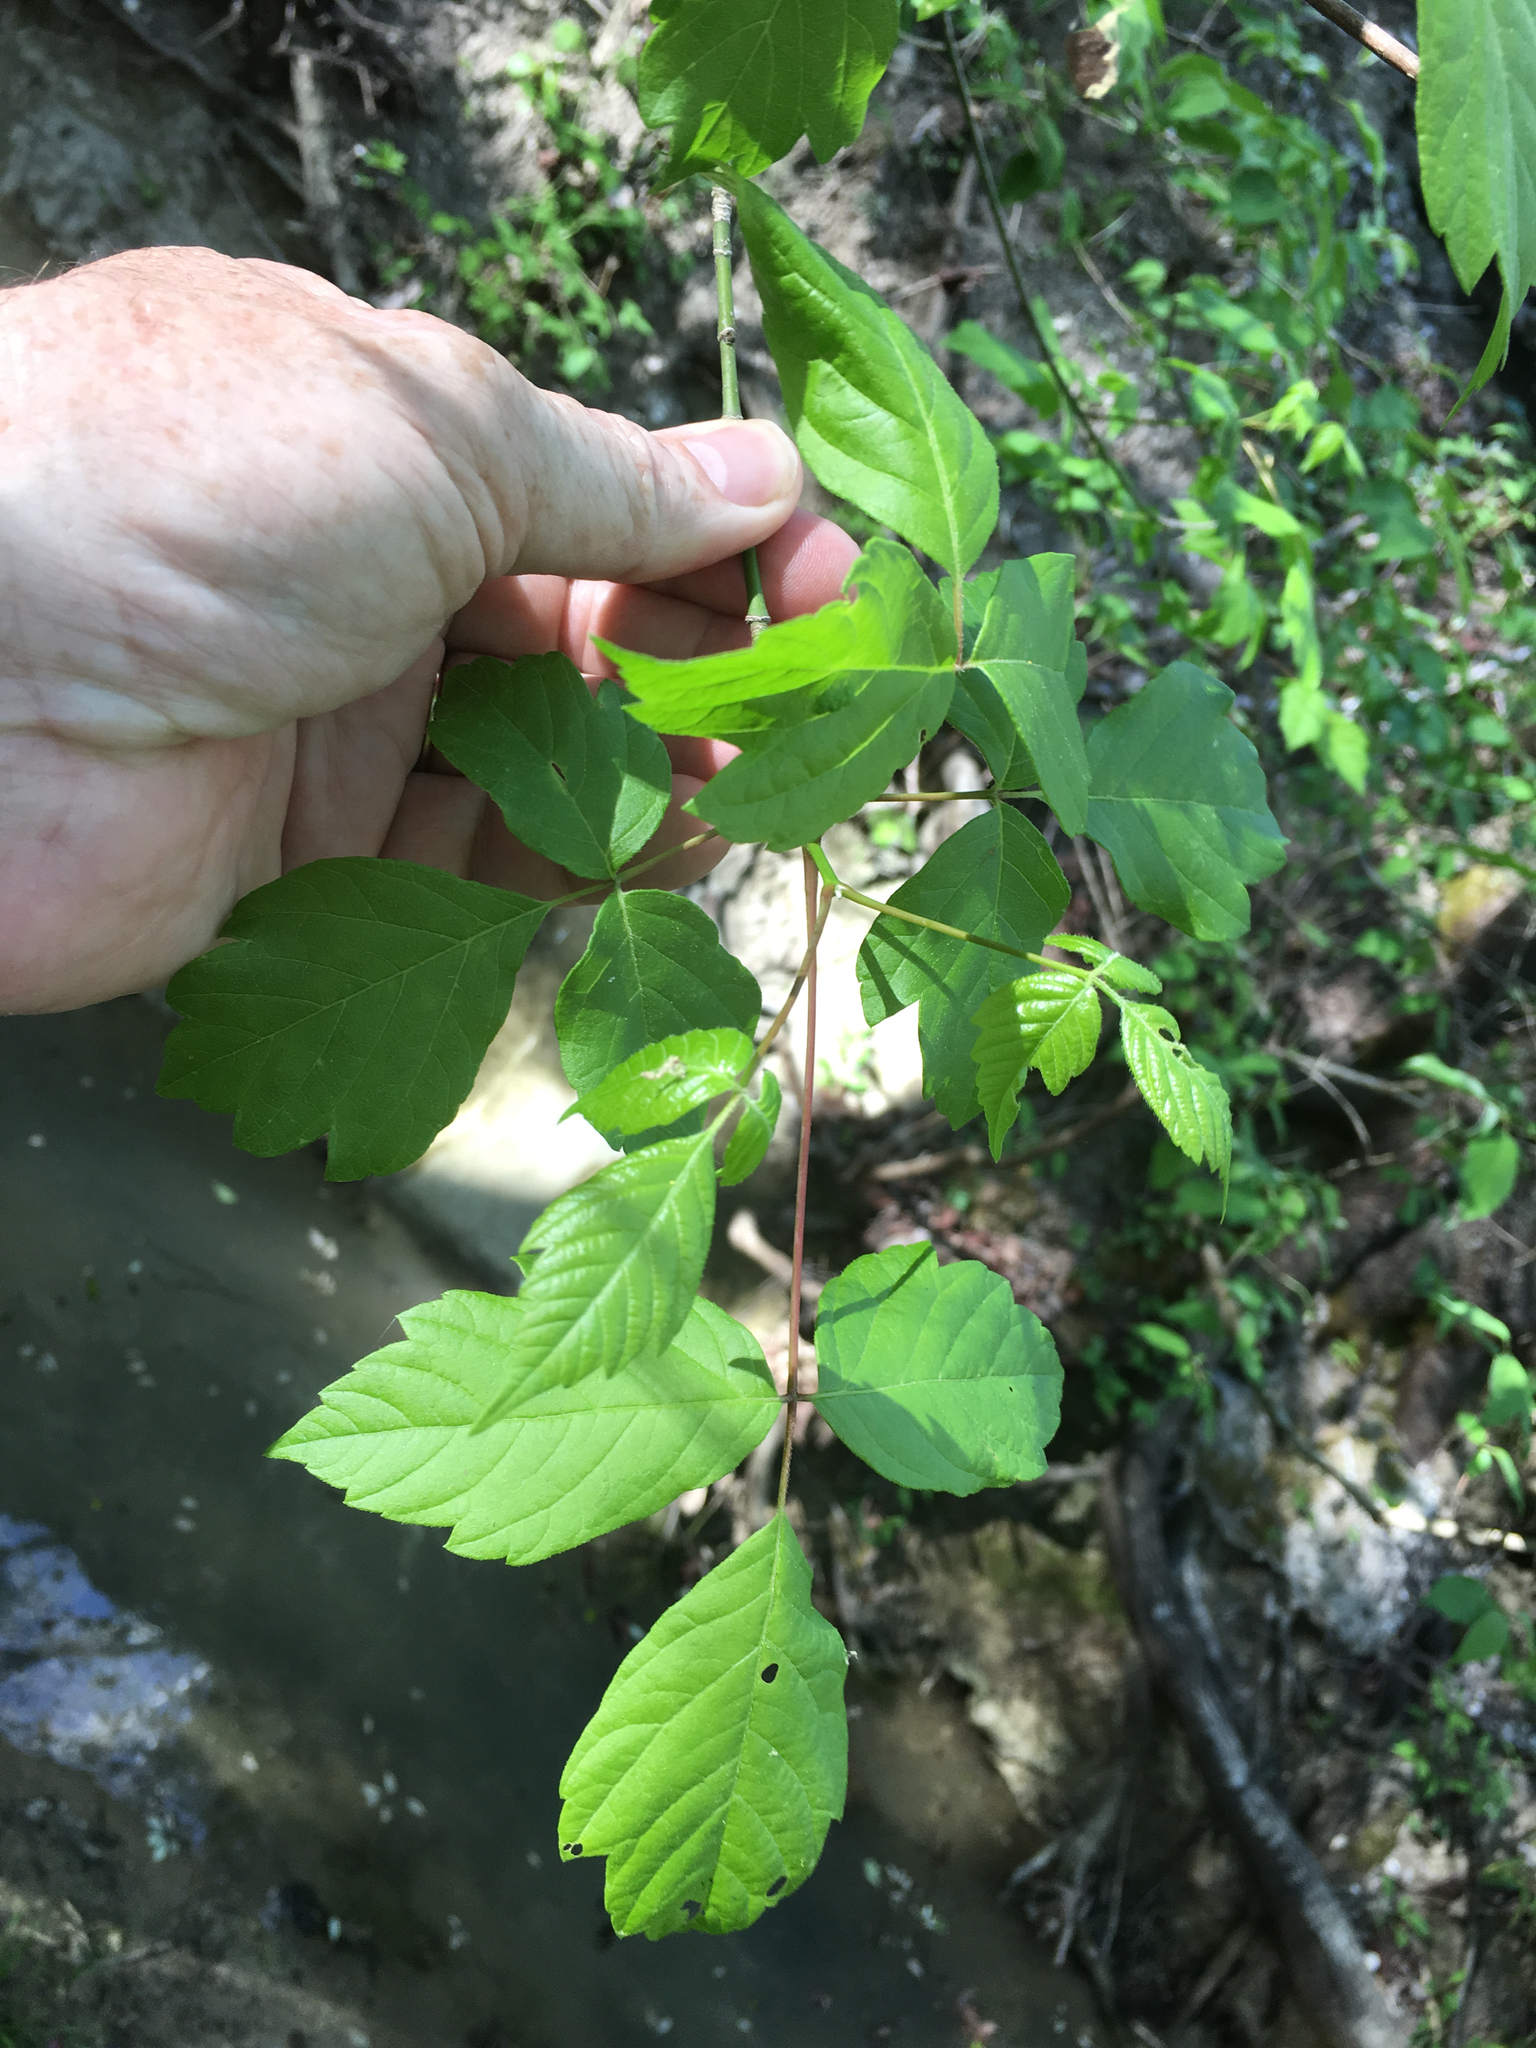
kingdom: Plantae
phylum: Tracheophyta
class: Magnoliopsida
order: Sapindales
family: Sapindaceae
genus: Acer
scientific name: Acer negundo
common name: Ashleaf maple
